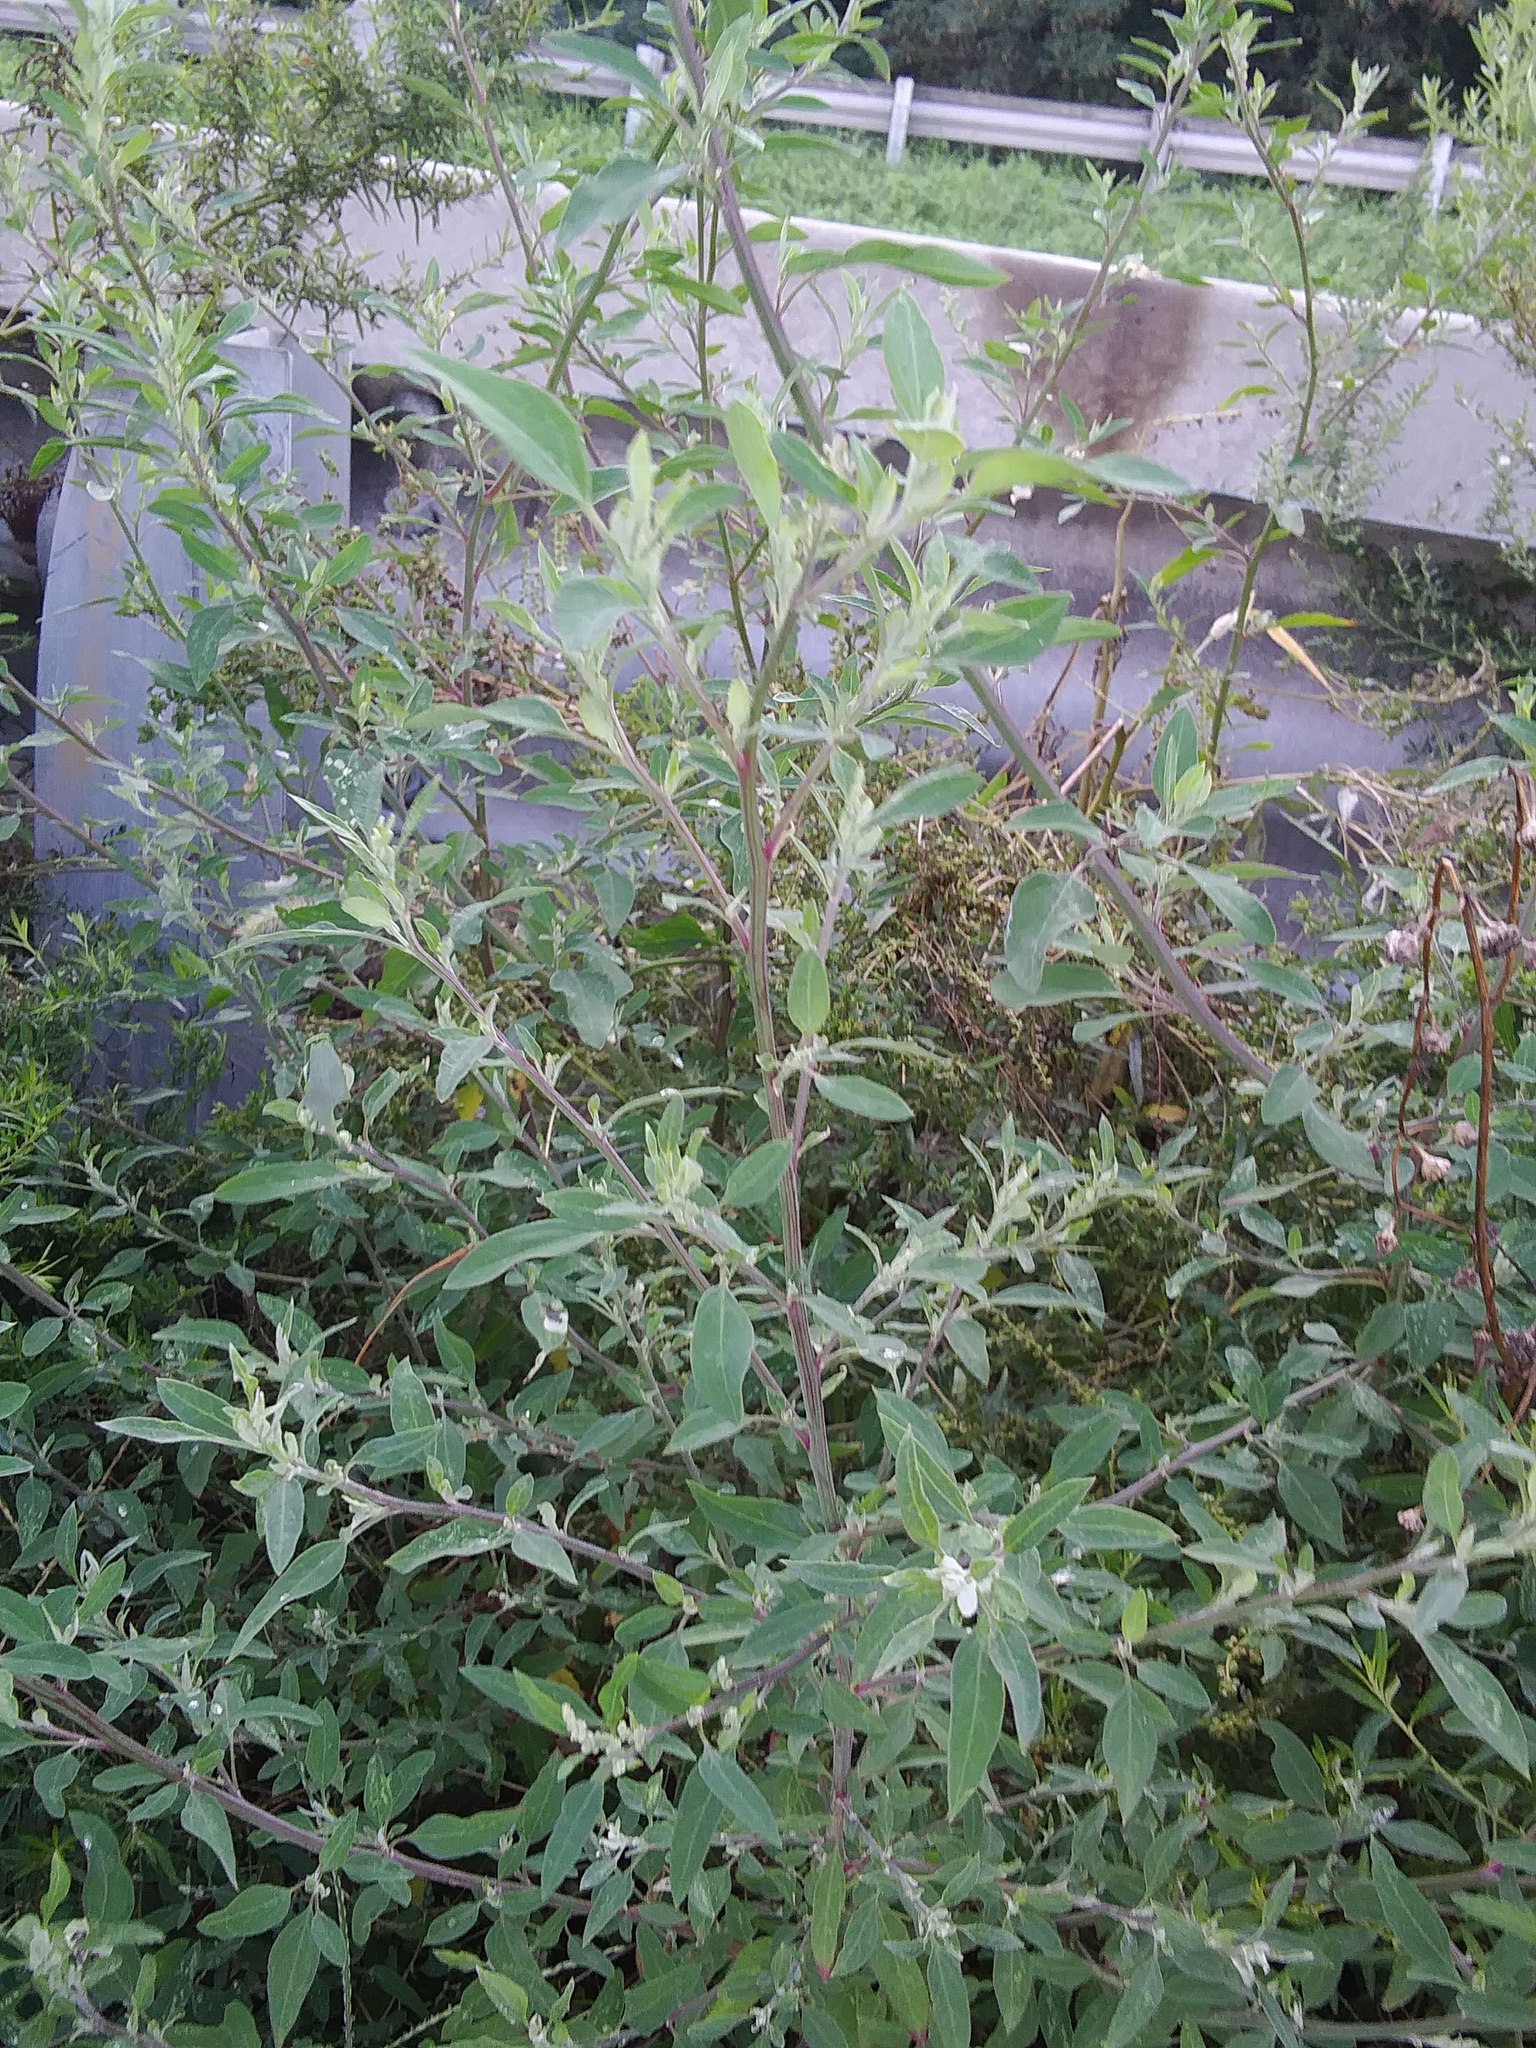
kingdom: Plantae
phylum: Tracheophyta
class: Magnoliopsida
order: Caryophyllales
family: Amaranthaceae
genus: Chenopodium
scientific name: Chenopodium album
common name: Fat-hen
